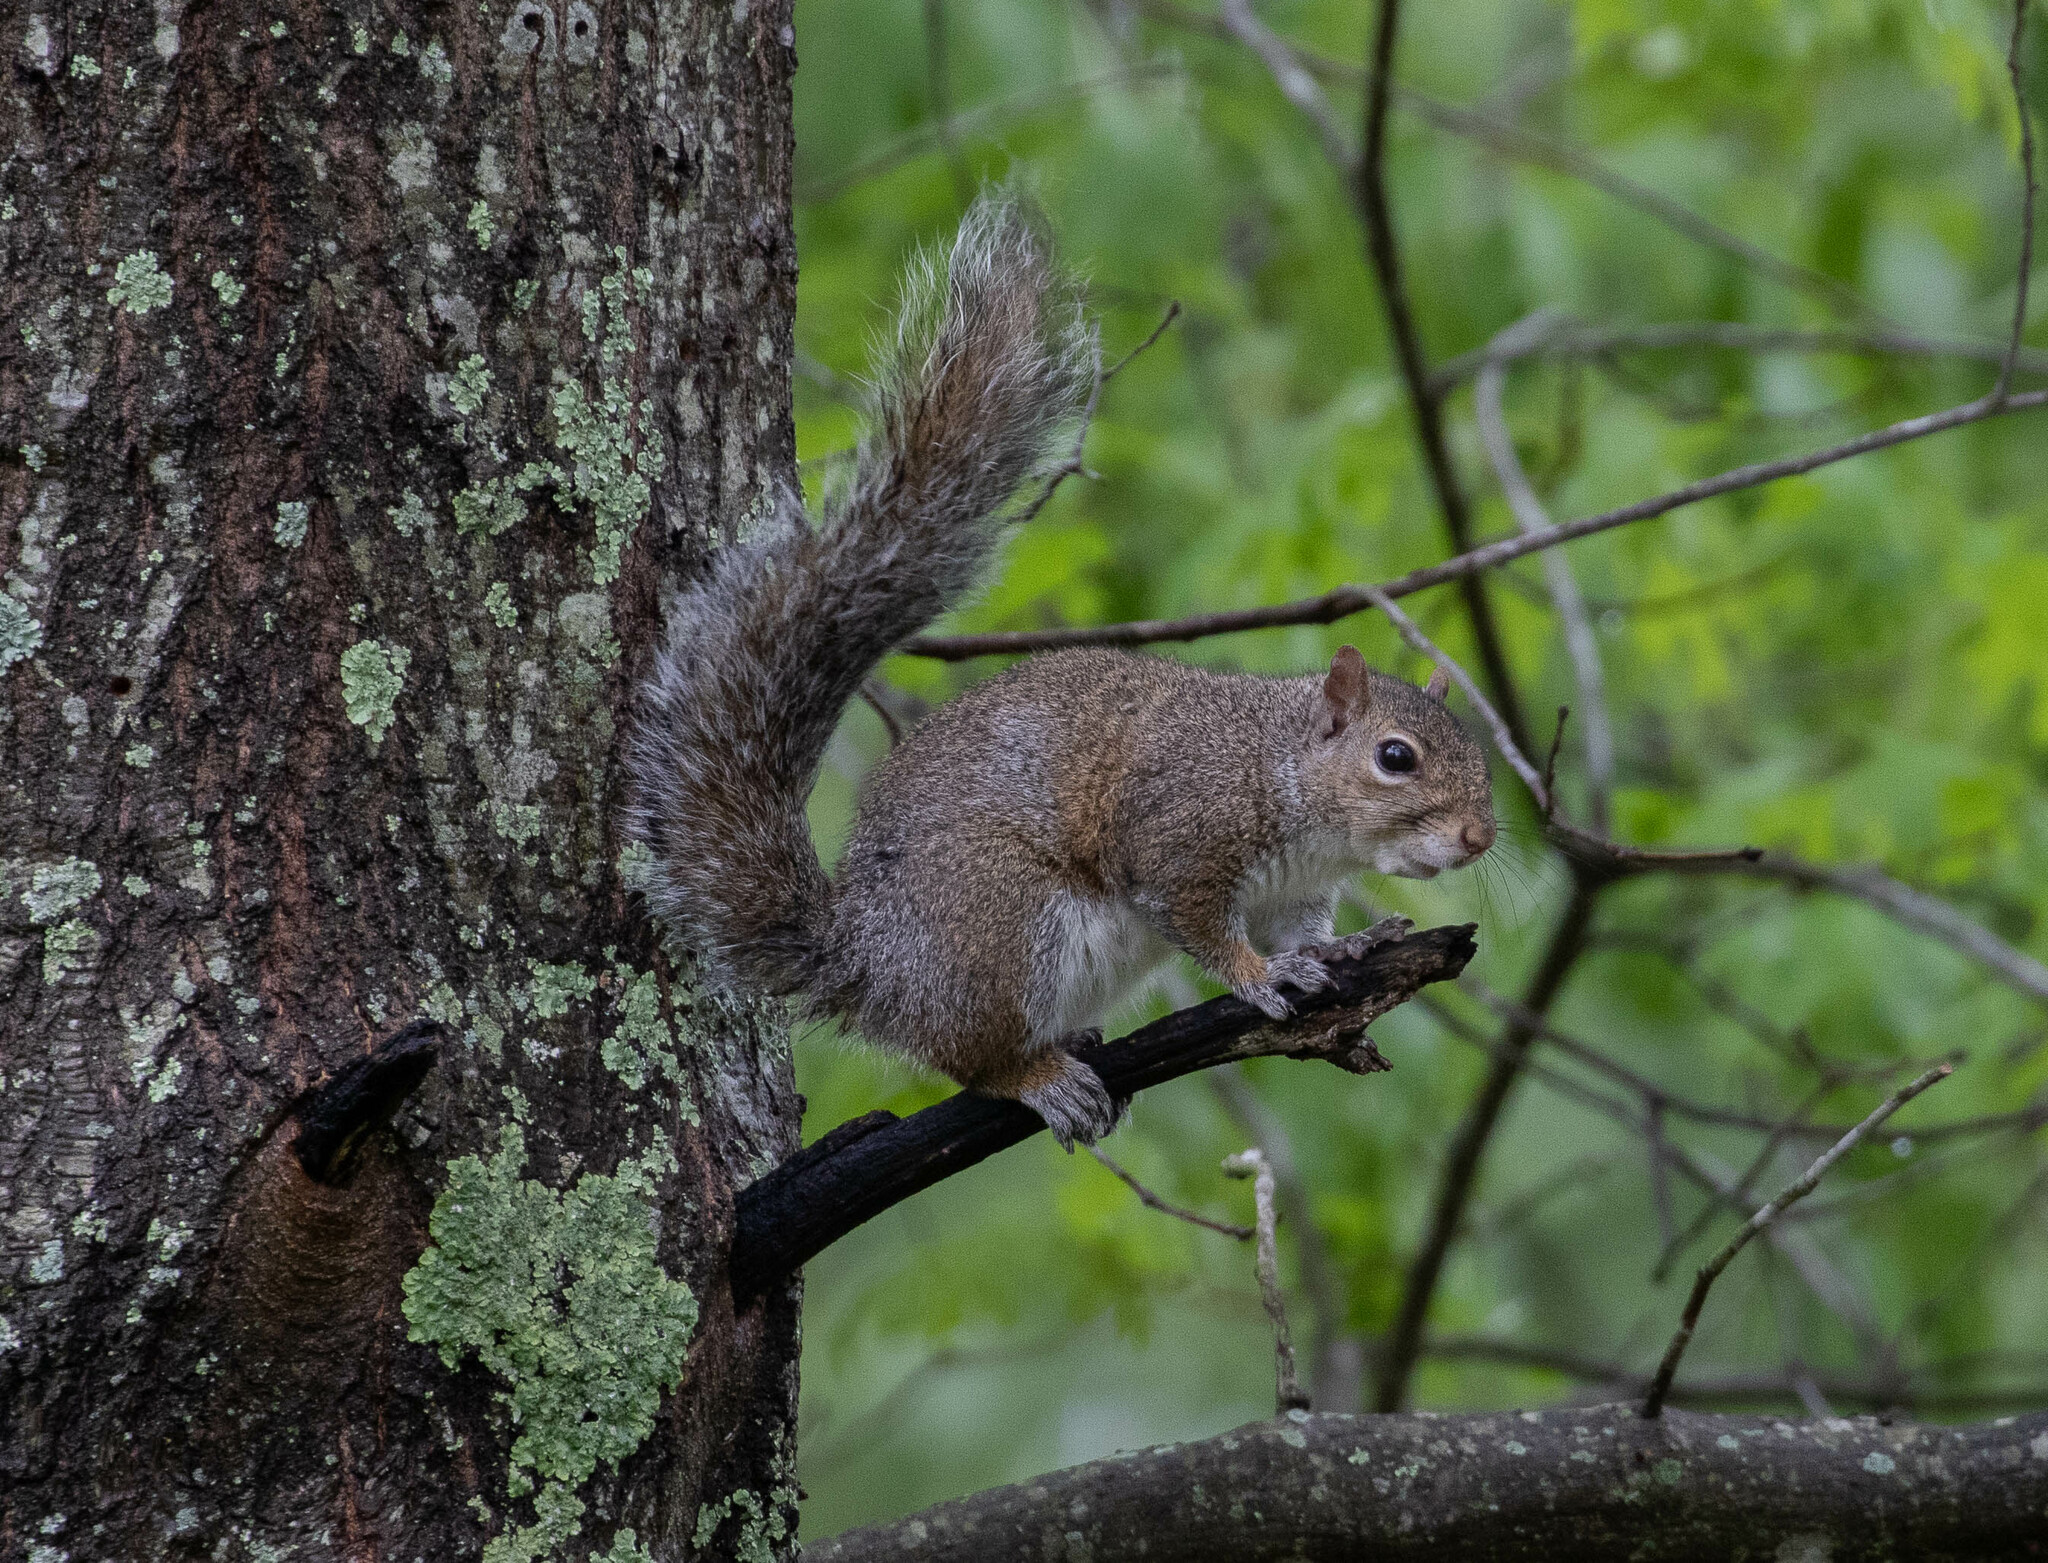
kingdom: Animalia
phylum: Chordata
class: Mammalia
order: Rodentia
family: Sciuridae
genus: Sciurus
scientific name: Sciurus carolinensis
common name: Eastern gray squirrel
